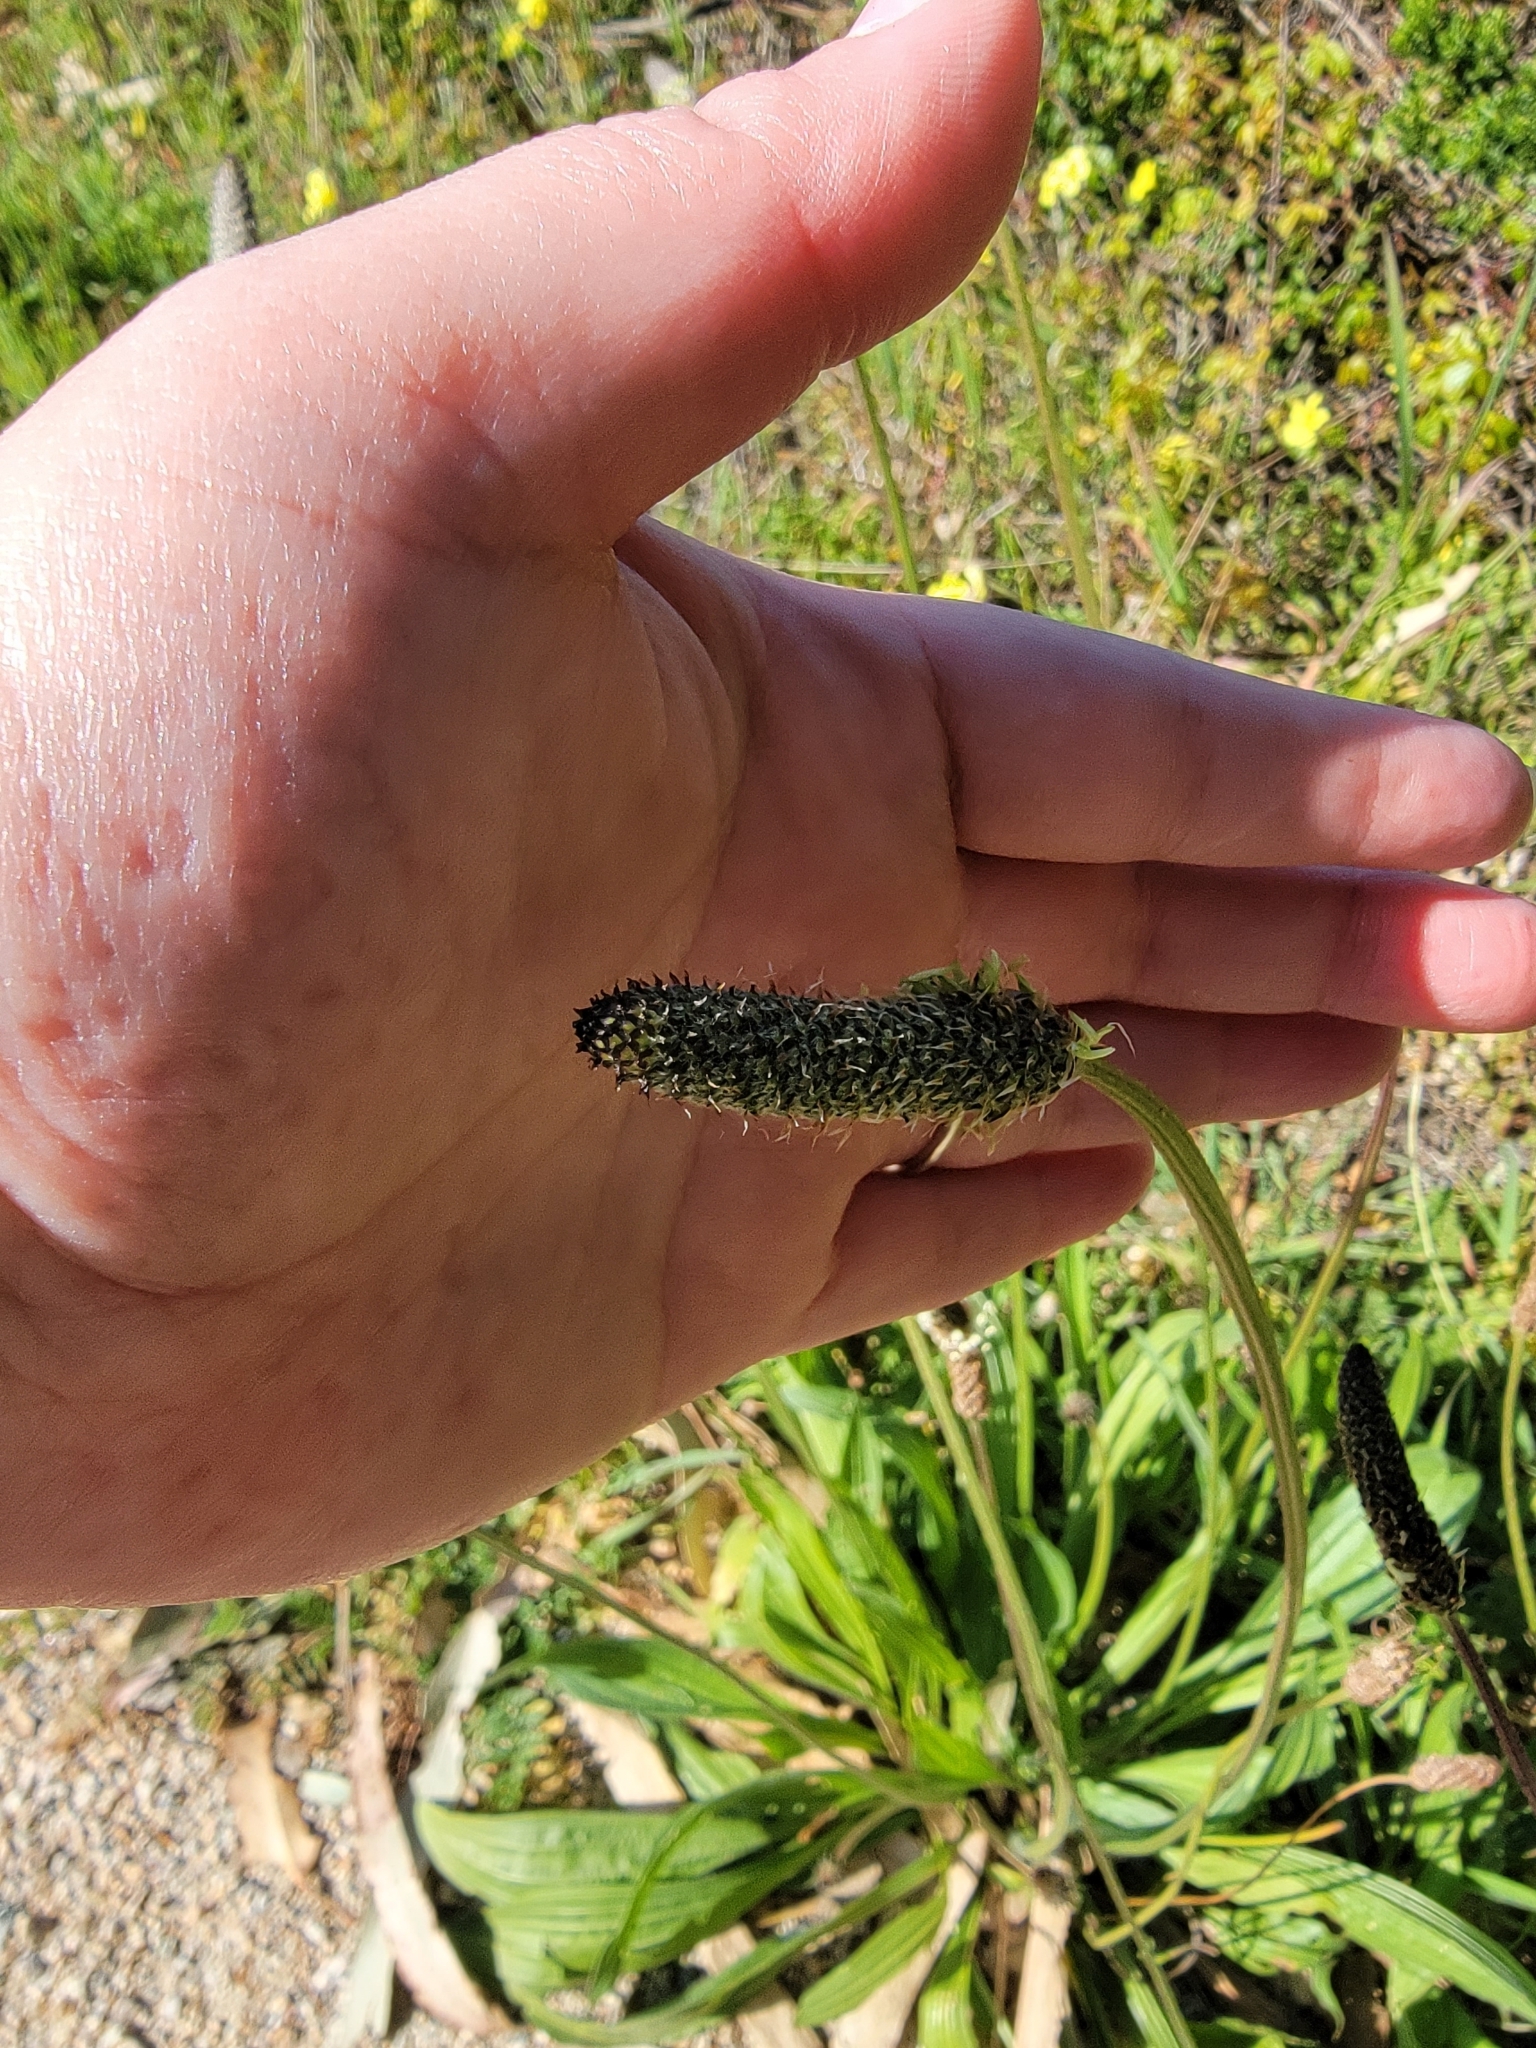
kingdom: Plantae
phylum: Tracheophyta
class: Magnoliopsida
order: Lamiales
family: Plantaginaceae
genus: Plantago
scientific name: Plantago lanceolata
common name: Ribwort plantain
